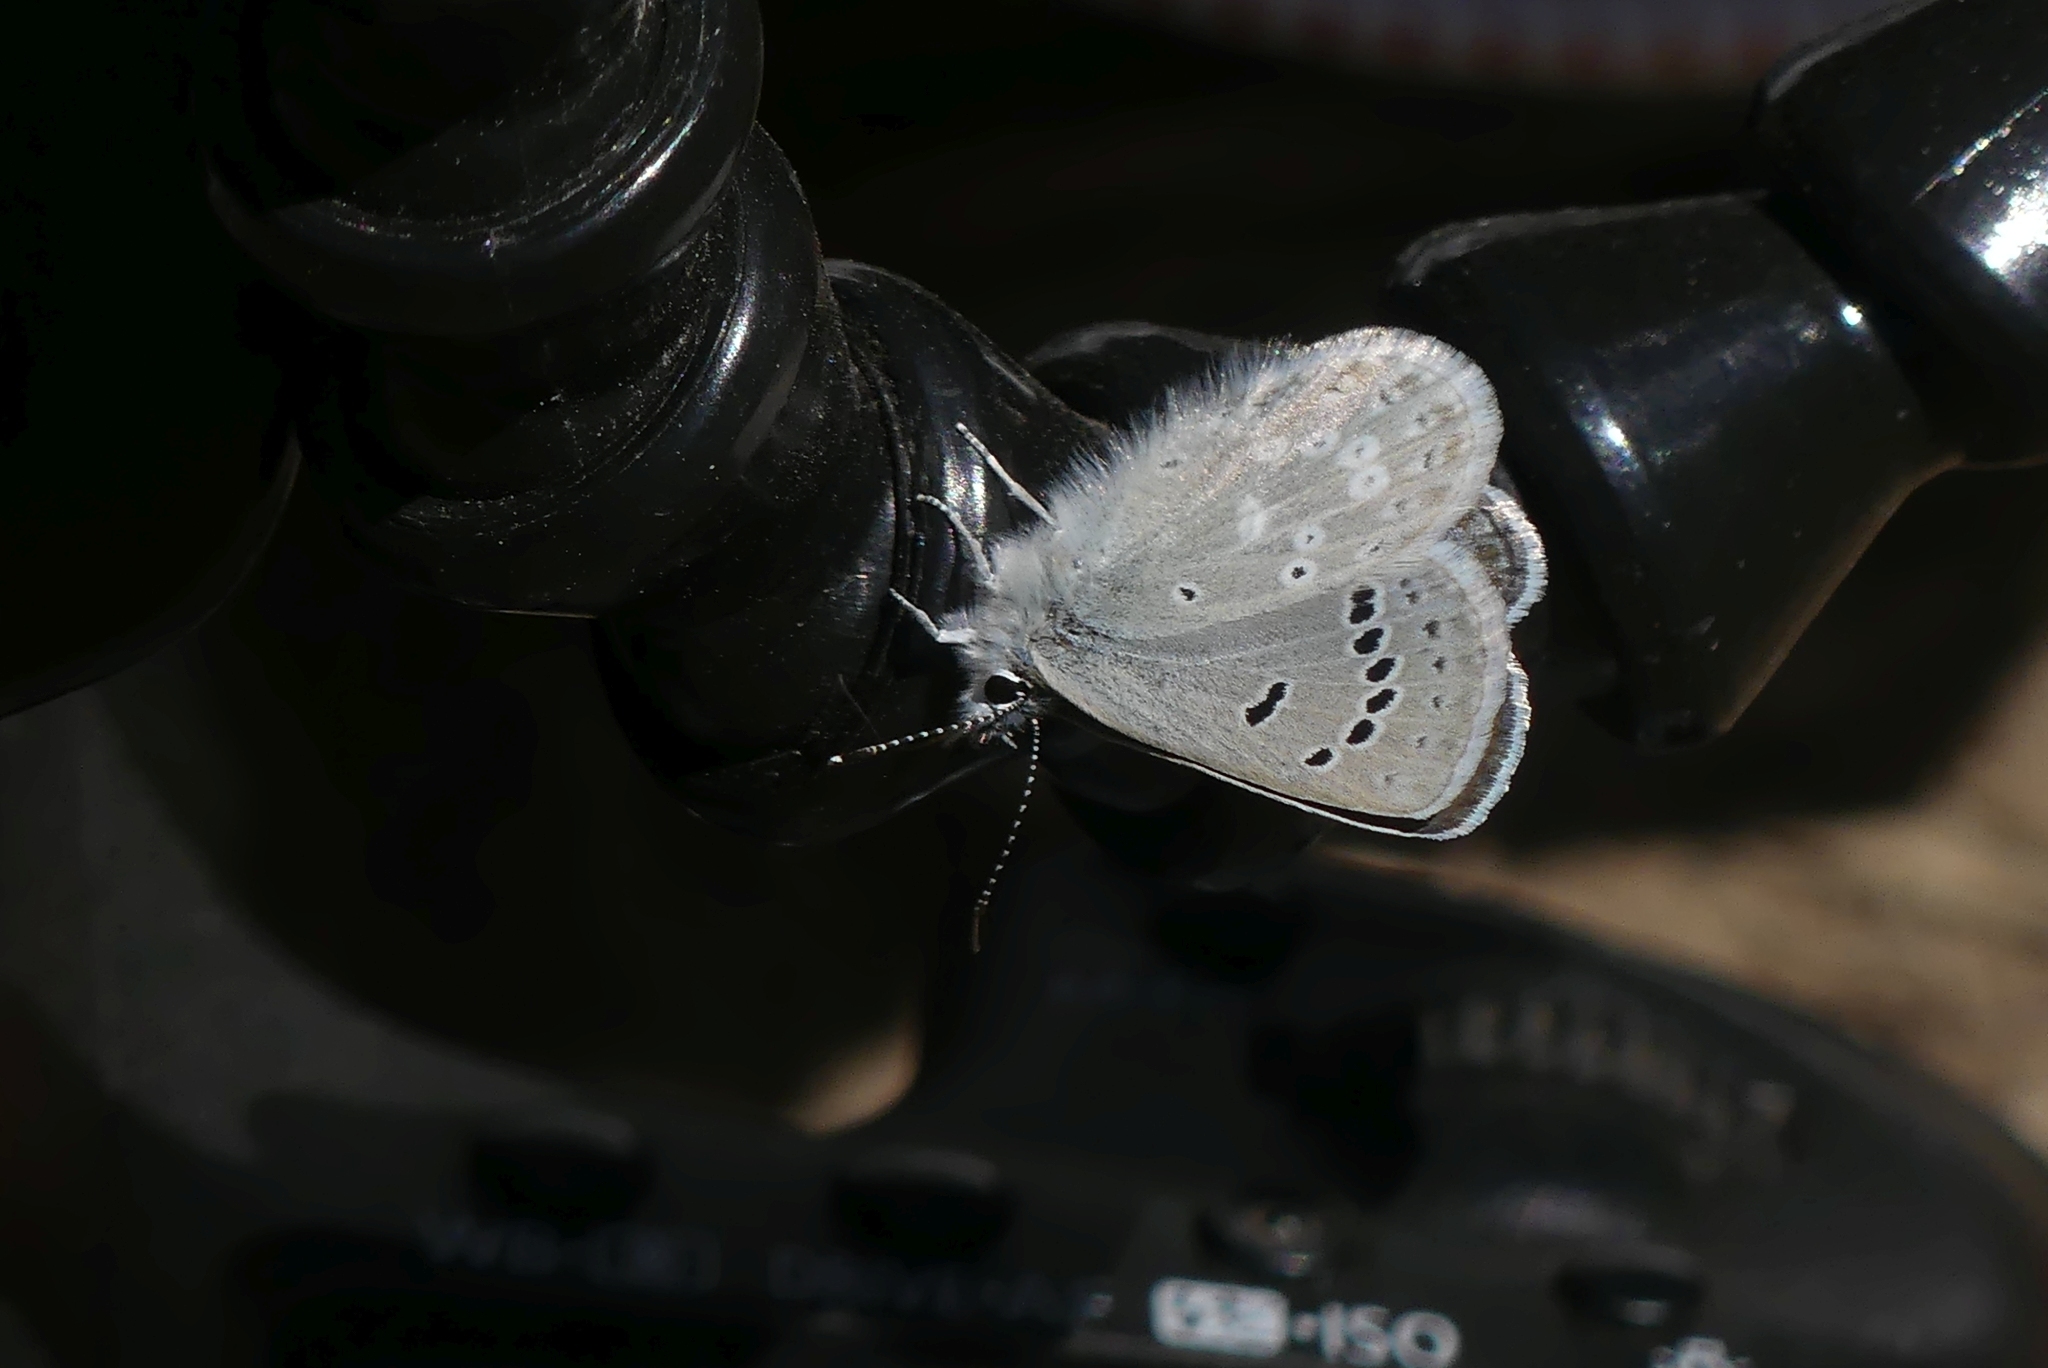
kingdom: Animalia
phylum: Arthropoda
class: Insecta
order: Lepidoptera
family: Lycaenidae
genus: Icaricia
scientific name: Icaricia icarioides
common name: Boisduval's blue
